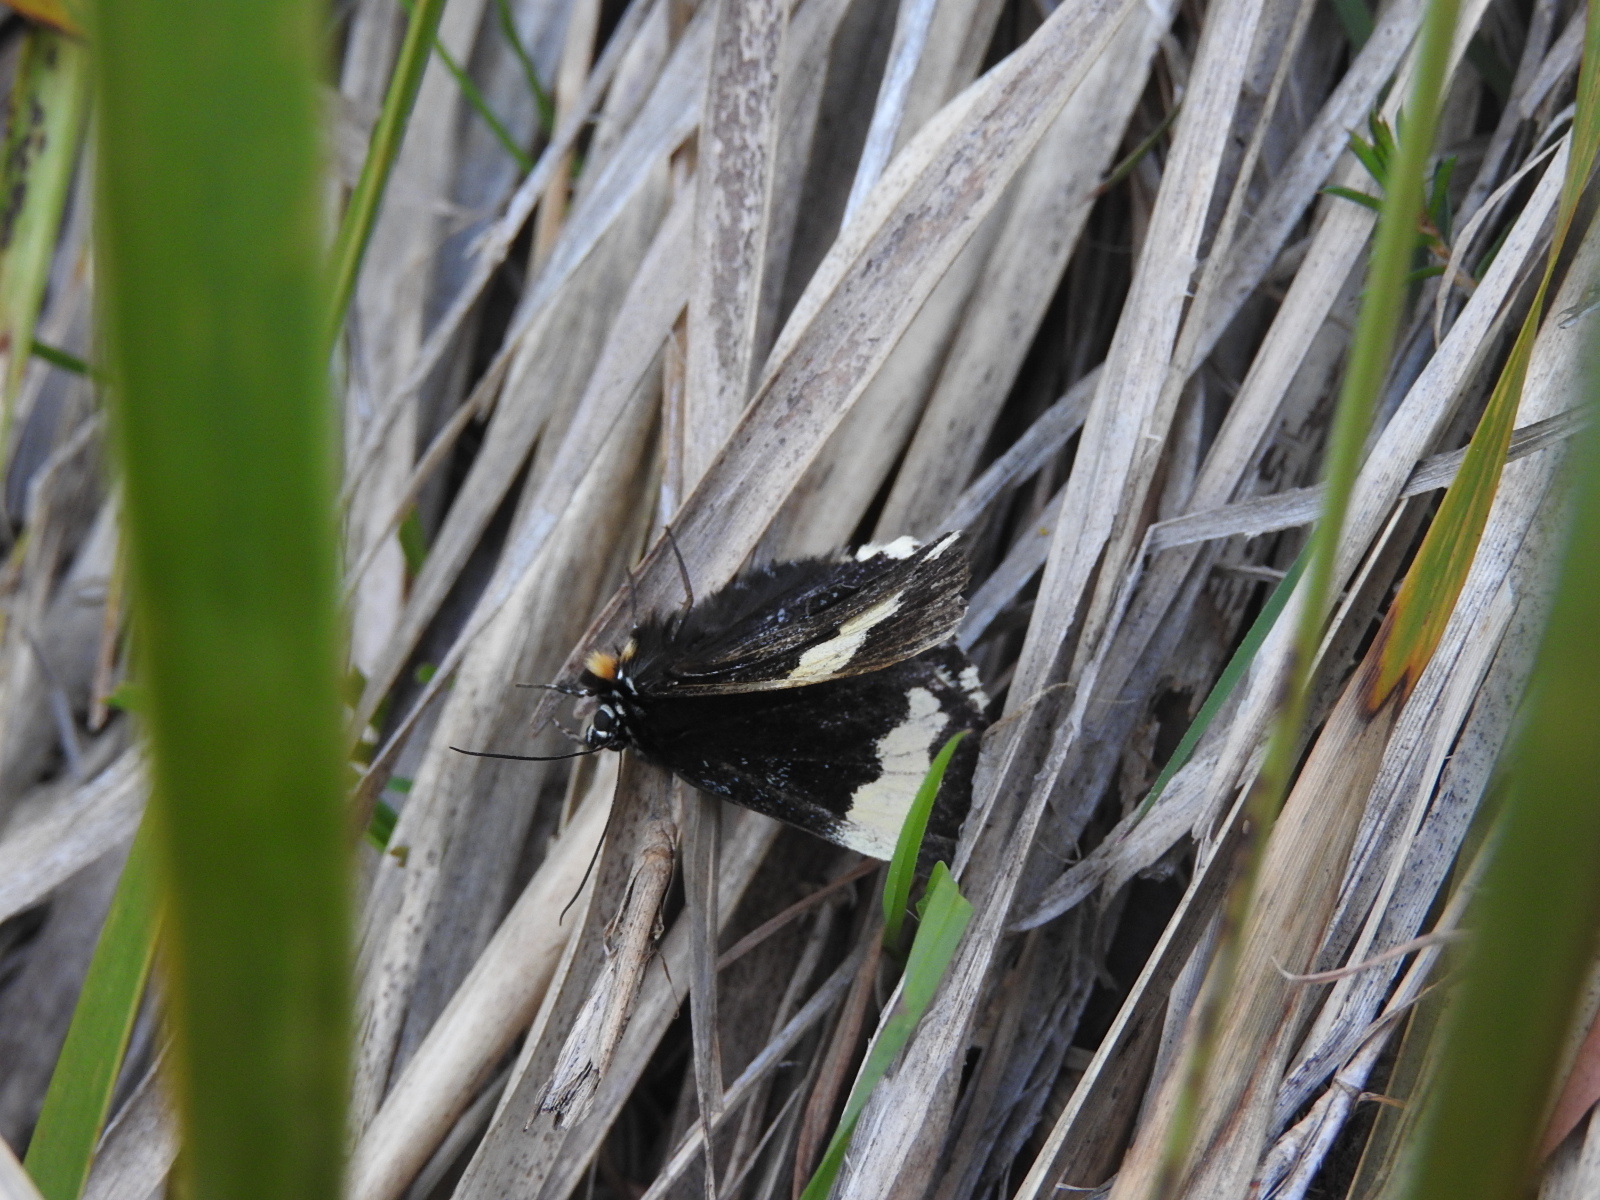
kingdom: Animalia
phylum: Arthropoda
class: Insecta
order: Lepidoptera
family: Noctuidae
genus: Eutrichopidia
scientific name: Eutrichopidia latinus
